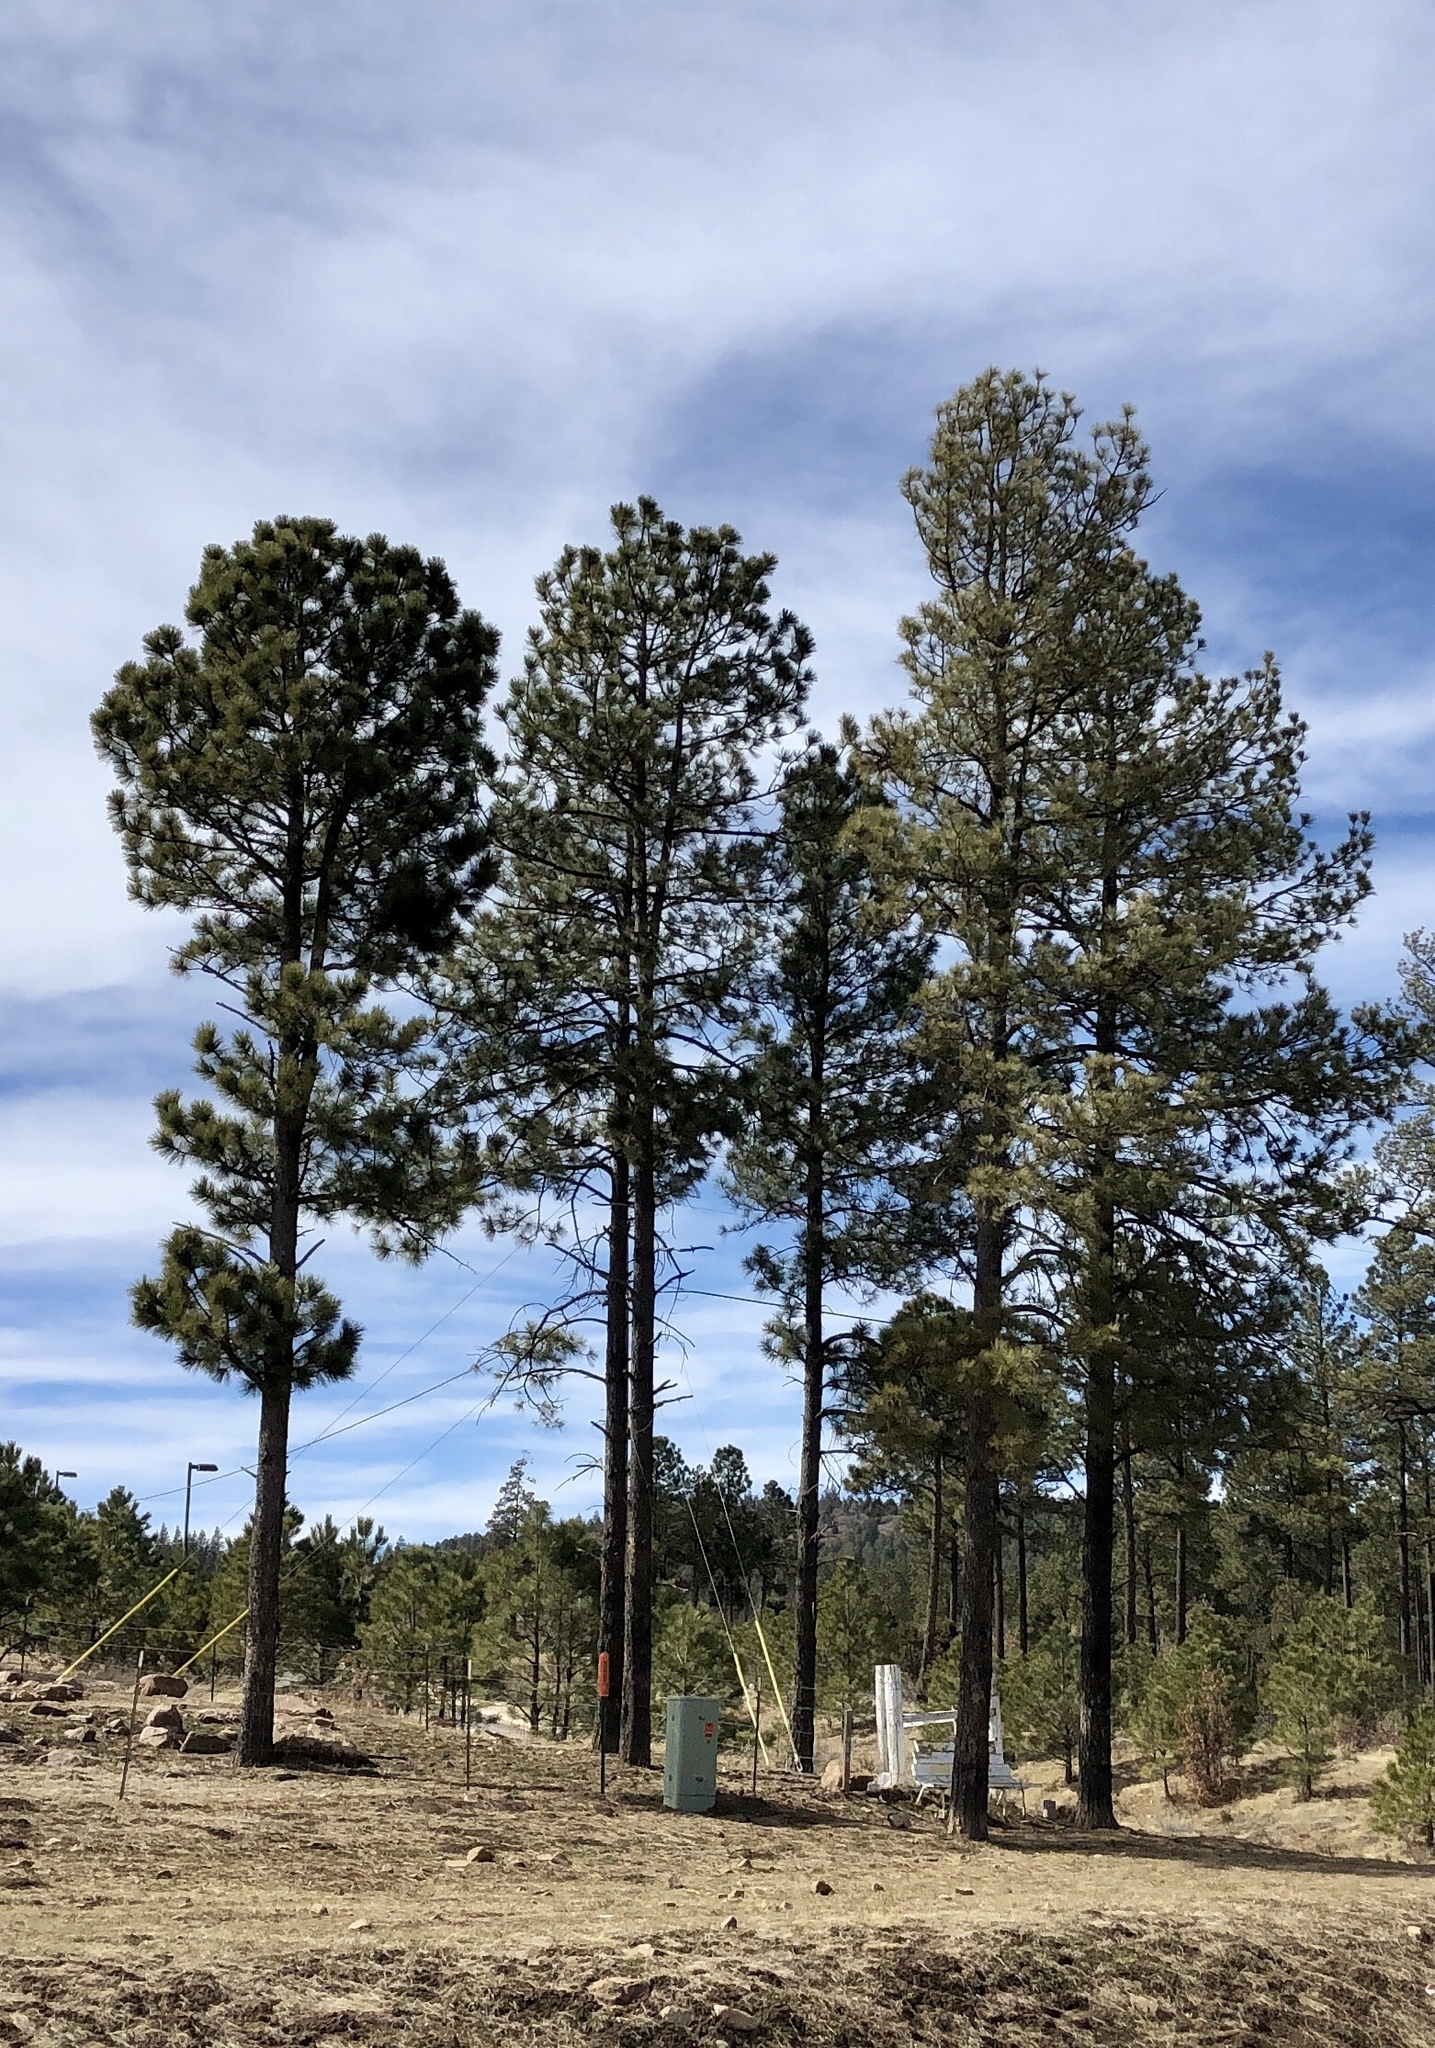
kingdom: Plantae
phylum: Tracheophyta
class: Pinopsida
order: Pinales
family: Pinaceae
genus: Pinus
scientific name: Pinus ponderosa
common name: Western yellow-pine
